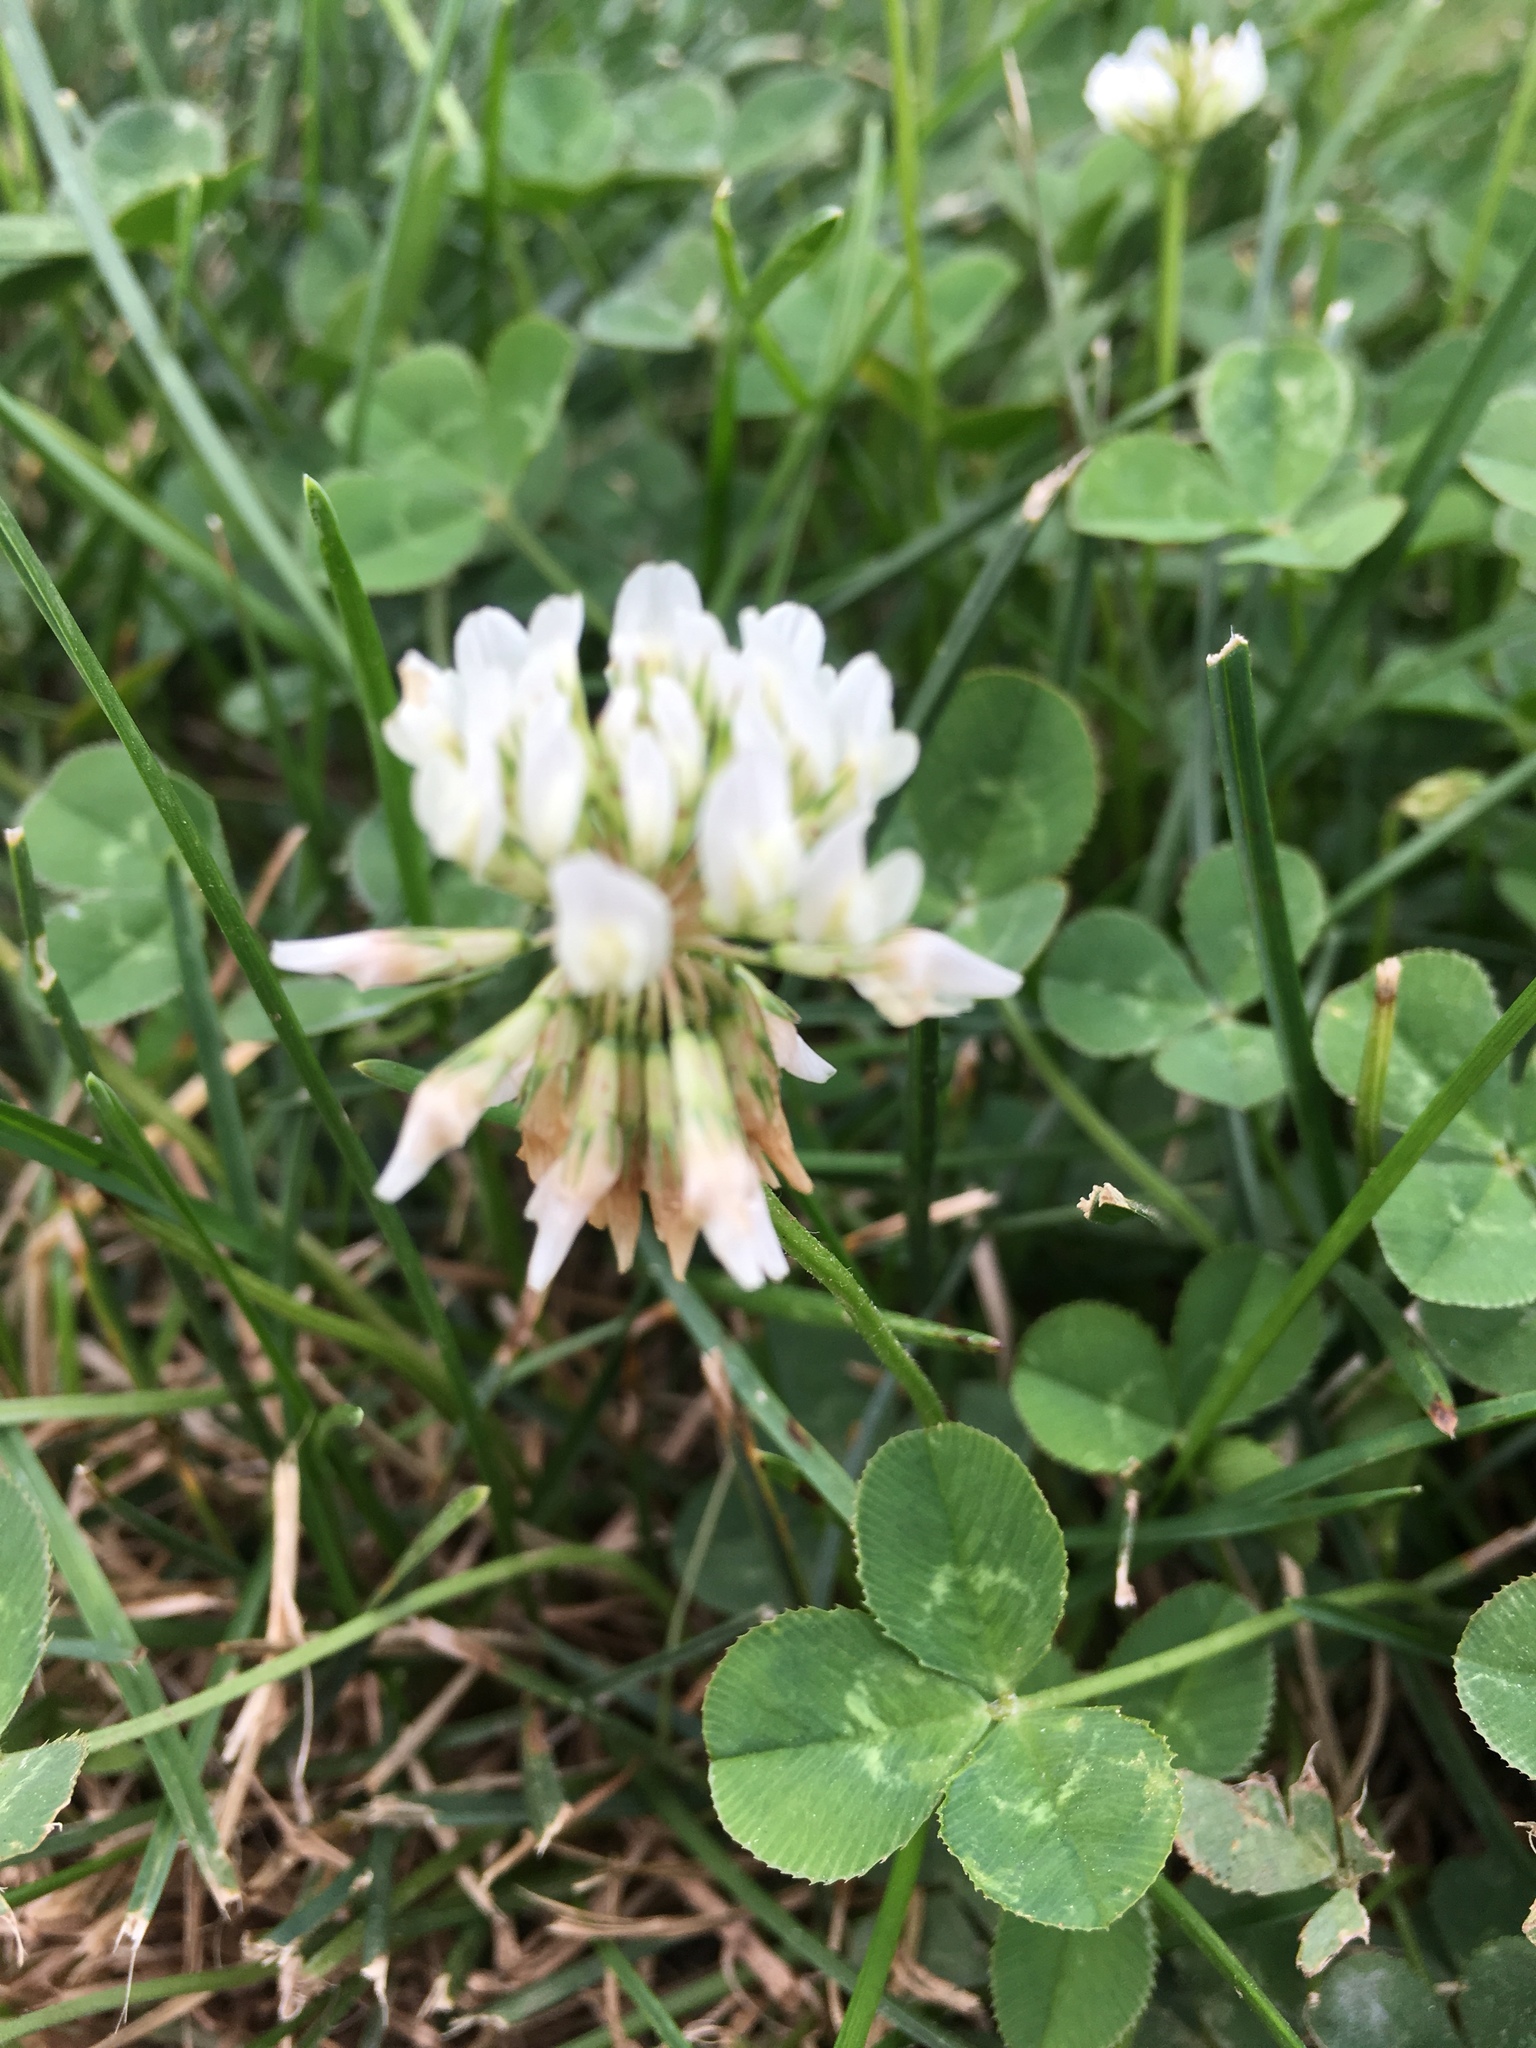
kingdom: Plantae
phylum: Tracheophyta
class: Magnoliopsida
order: Fabales
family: Fabaceae
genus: Trifolium
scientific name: Trifolium repens
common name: White clover
